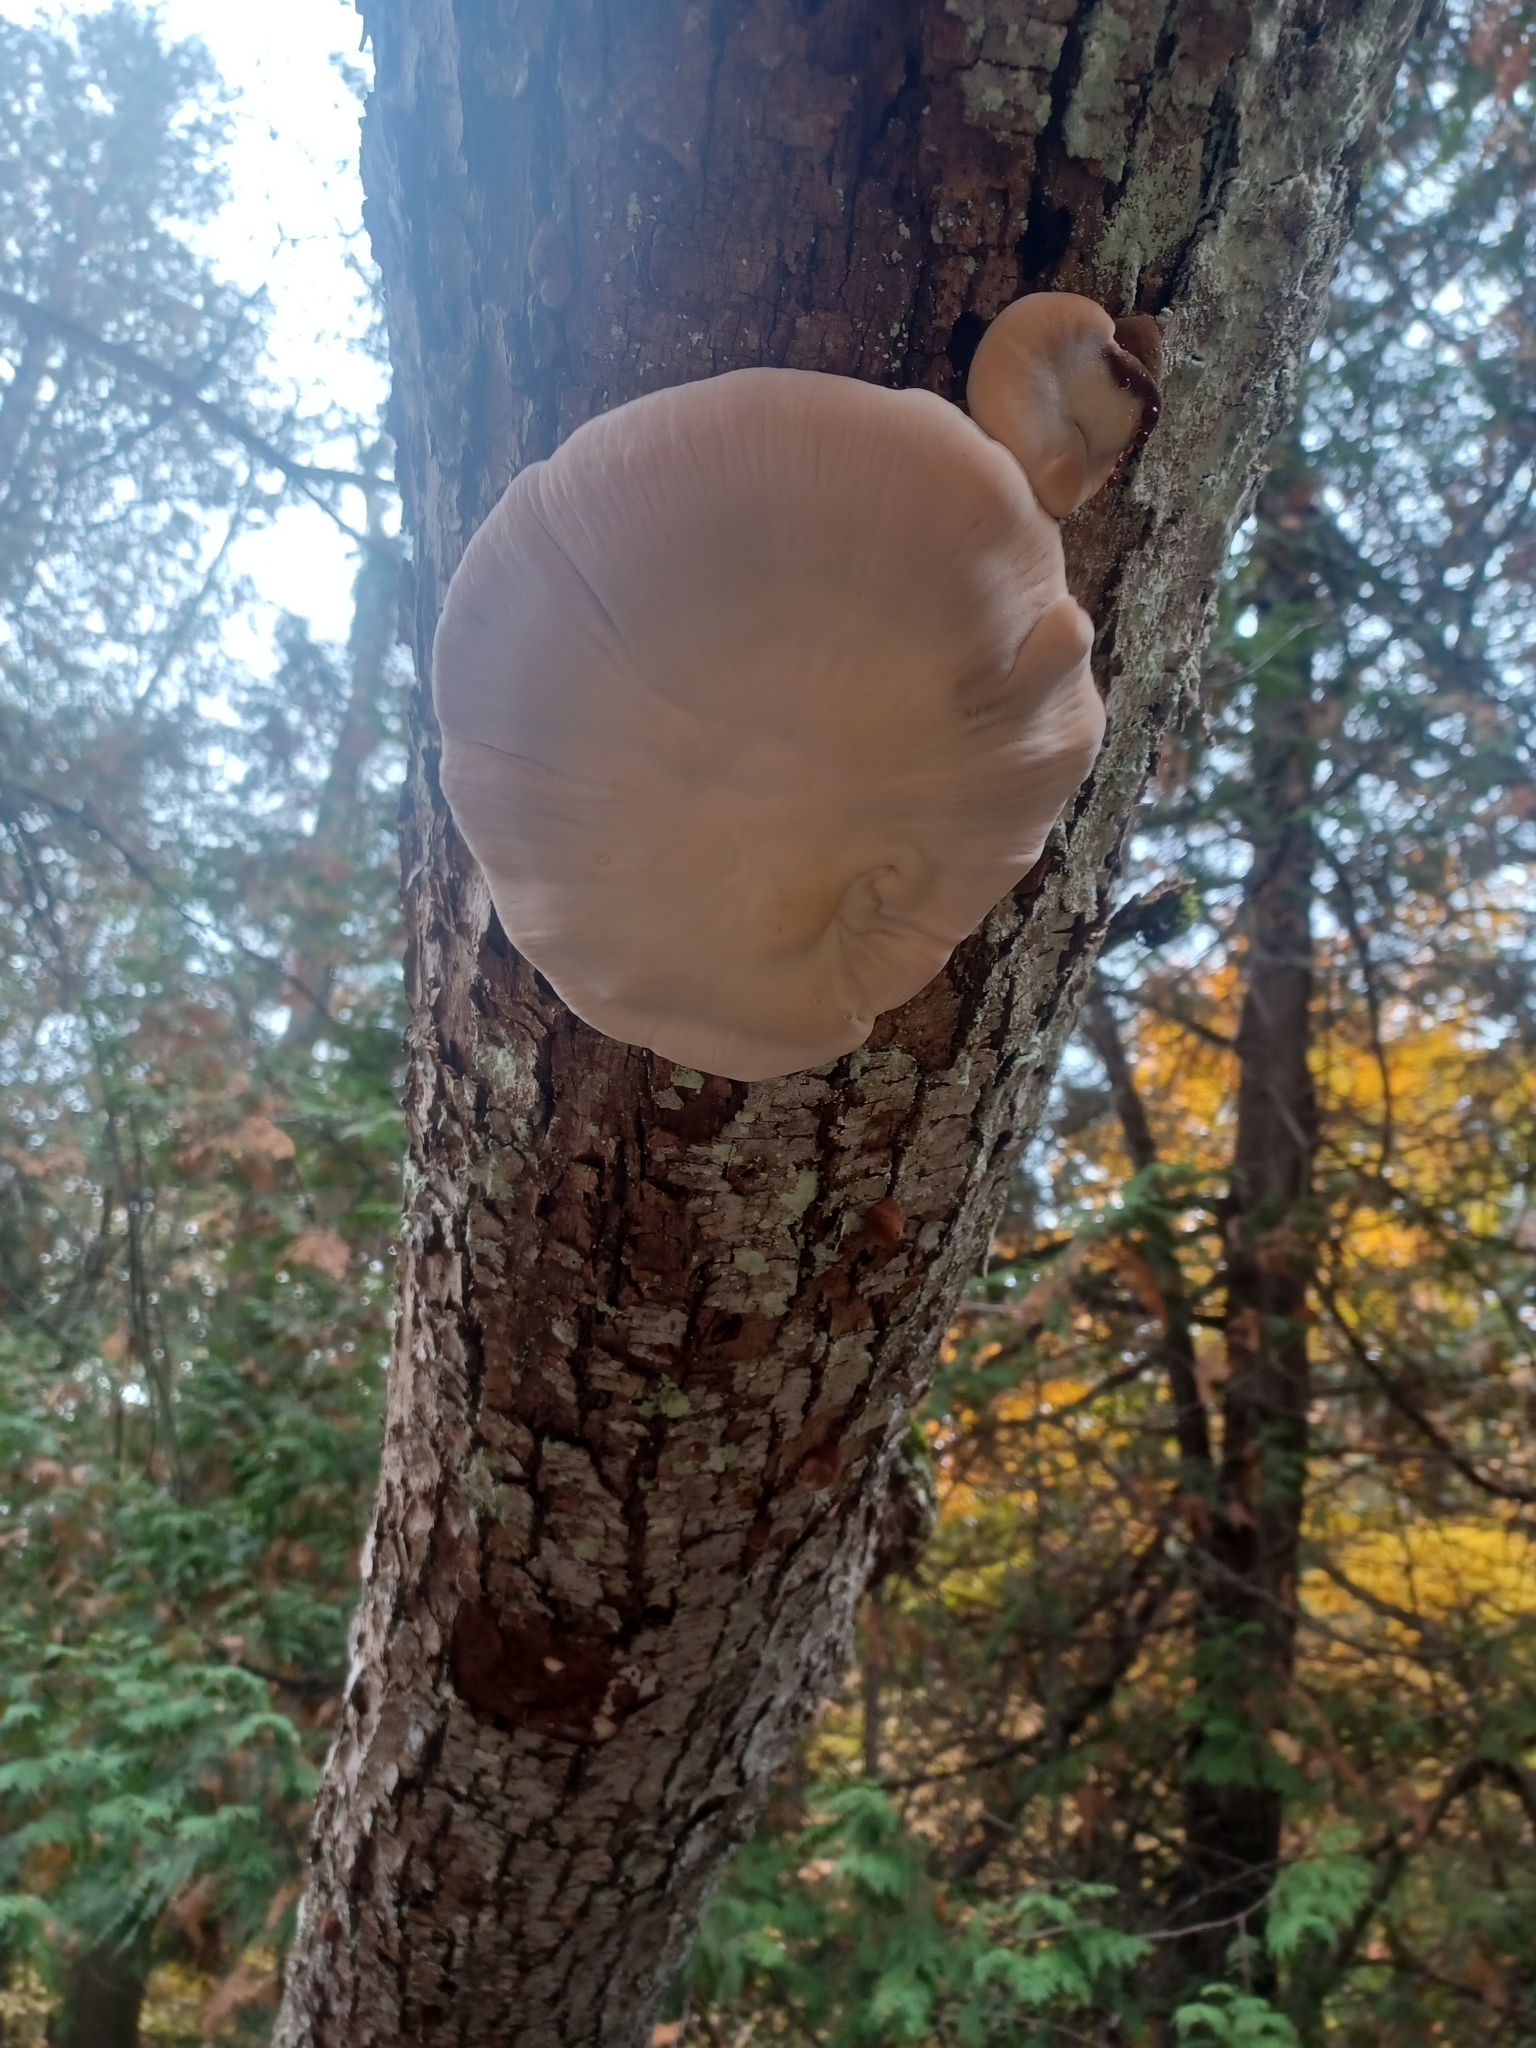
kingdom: Fungi
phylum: Basidiomycota
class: Agaricomycetes
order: Polyporales
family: Ischnodermataceae
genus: Ischnoderma
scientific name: Ischnoderma resinosum
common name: Resinous polypore
